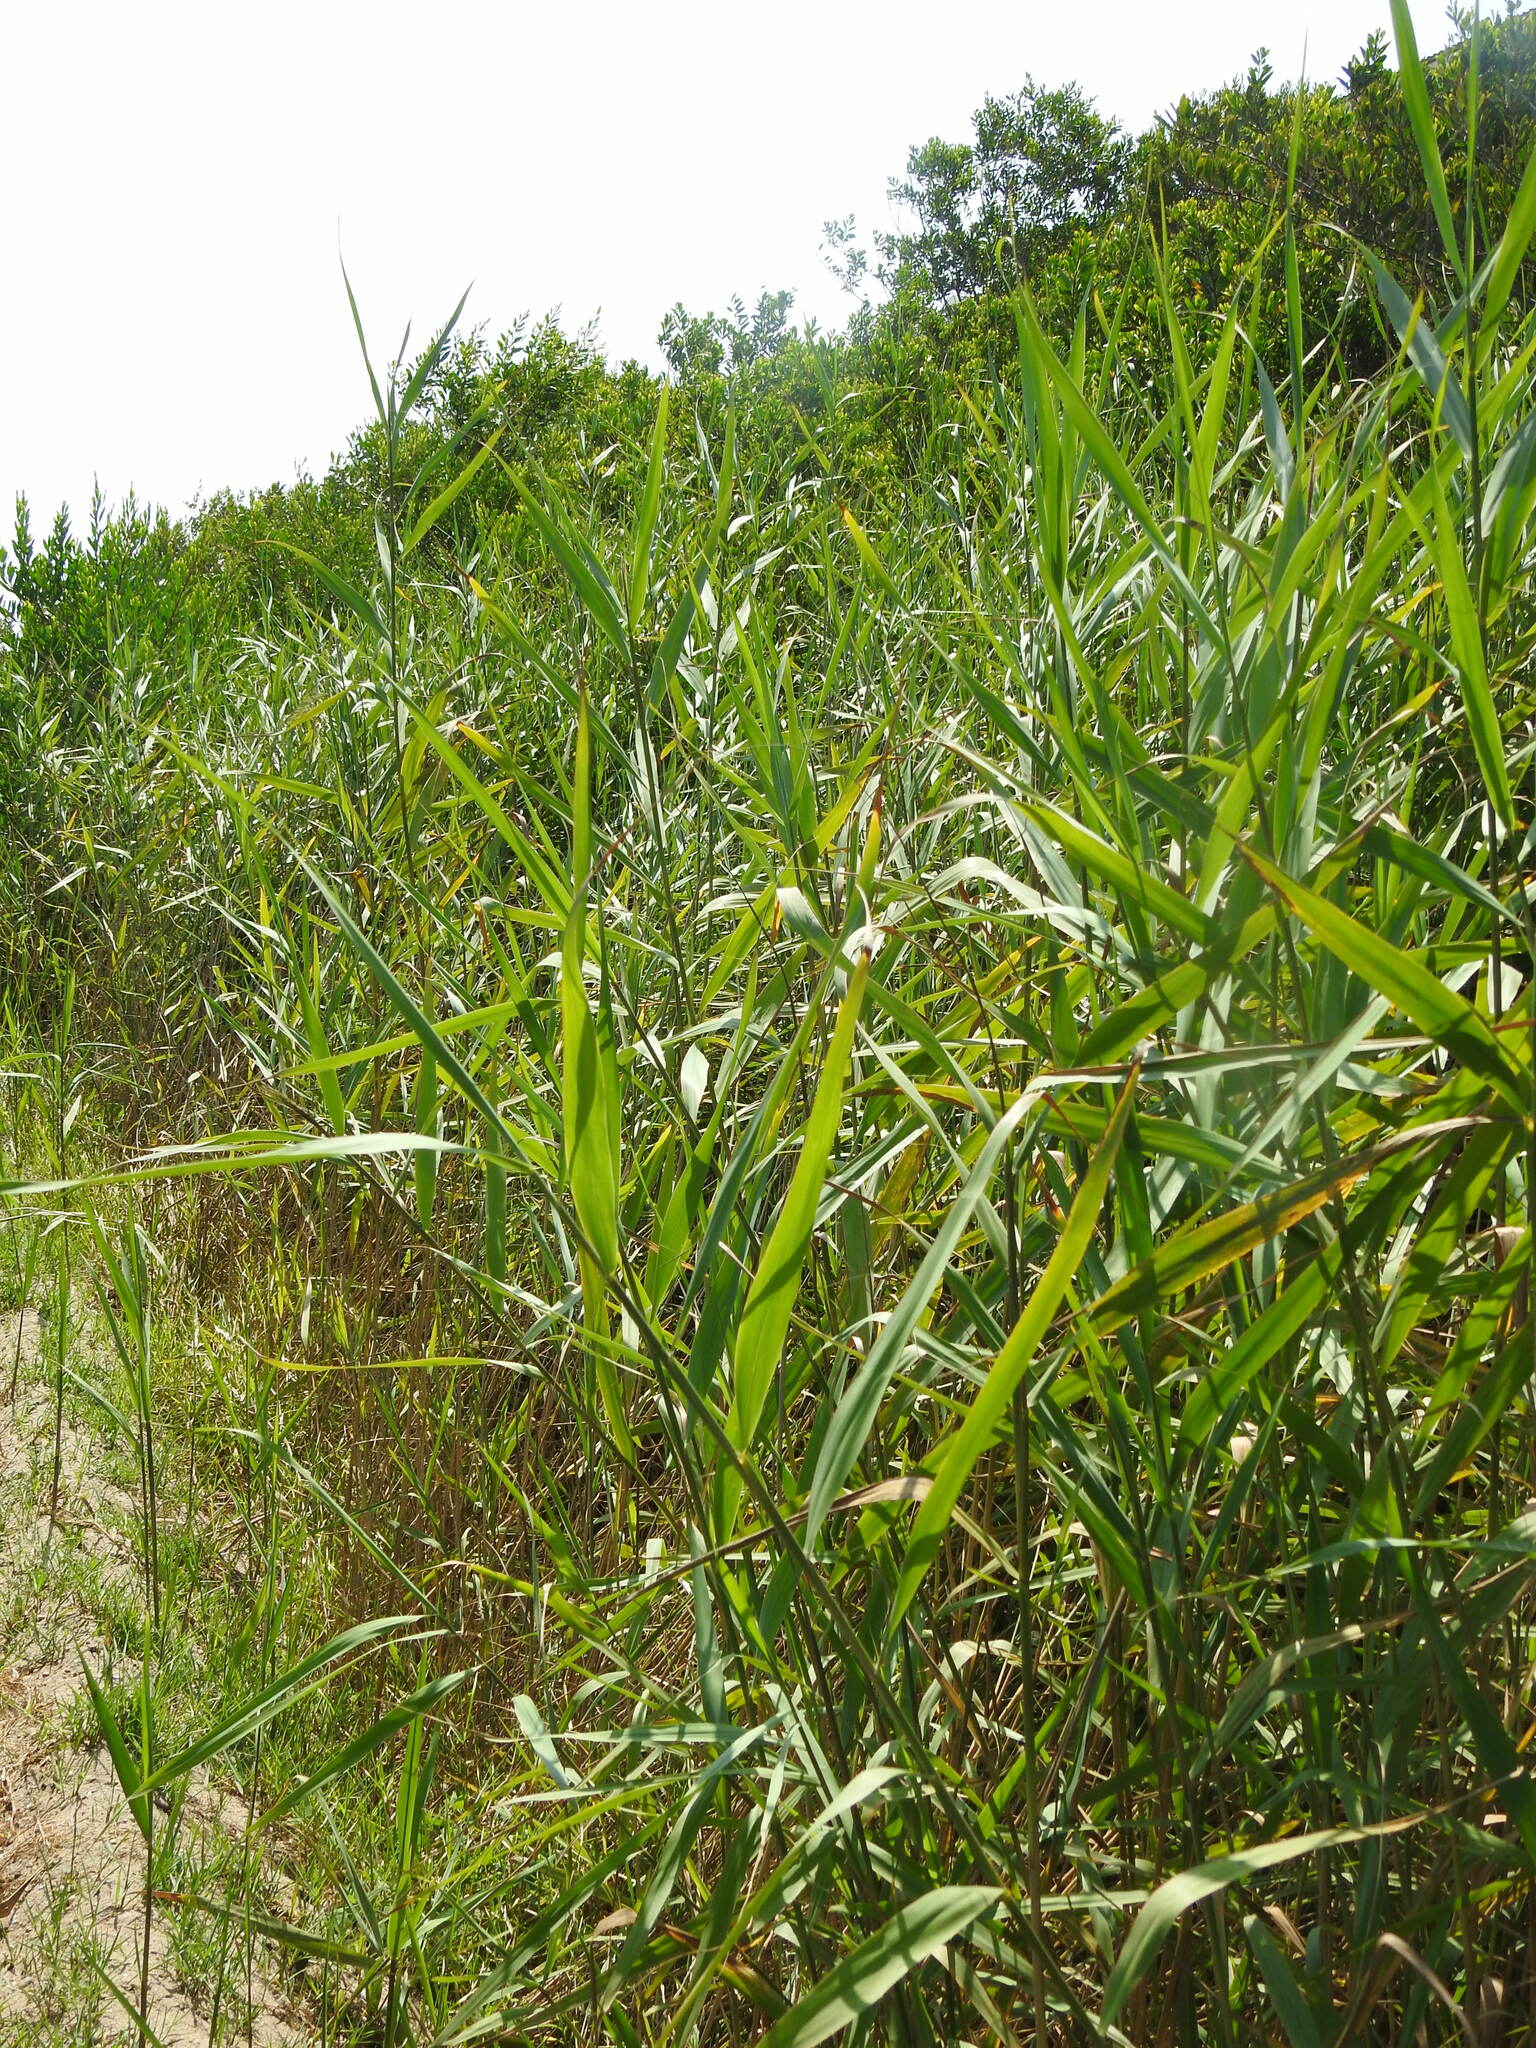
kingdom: Plantae
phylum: Tracheophyta
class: Liliopsida
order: Poales
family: Poaceae
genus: Phragmites
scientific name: Phragmites australis
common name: Common reed
